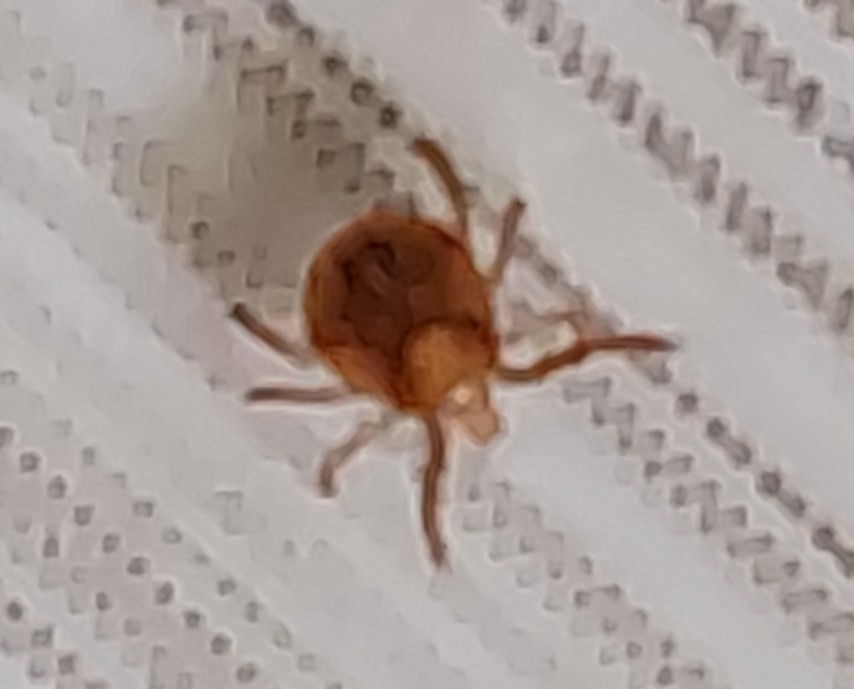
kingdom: Animalia
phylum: Arthropoda
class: Arachnida
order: Ixodida
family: Ixodidae
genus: Amblyomma
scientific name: Amblyomma americanum
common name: Lone star tick
